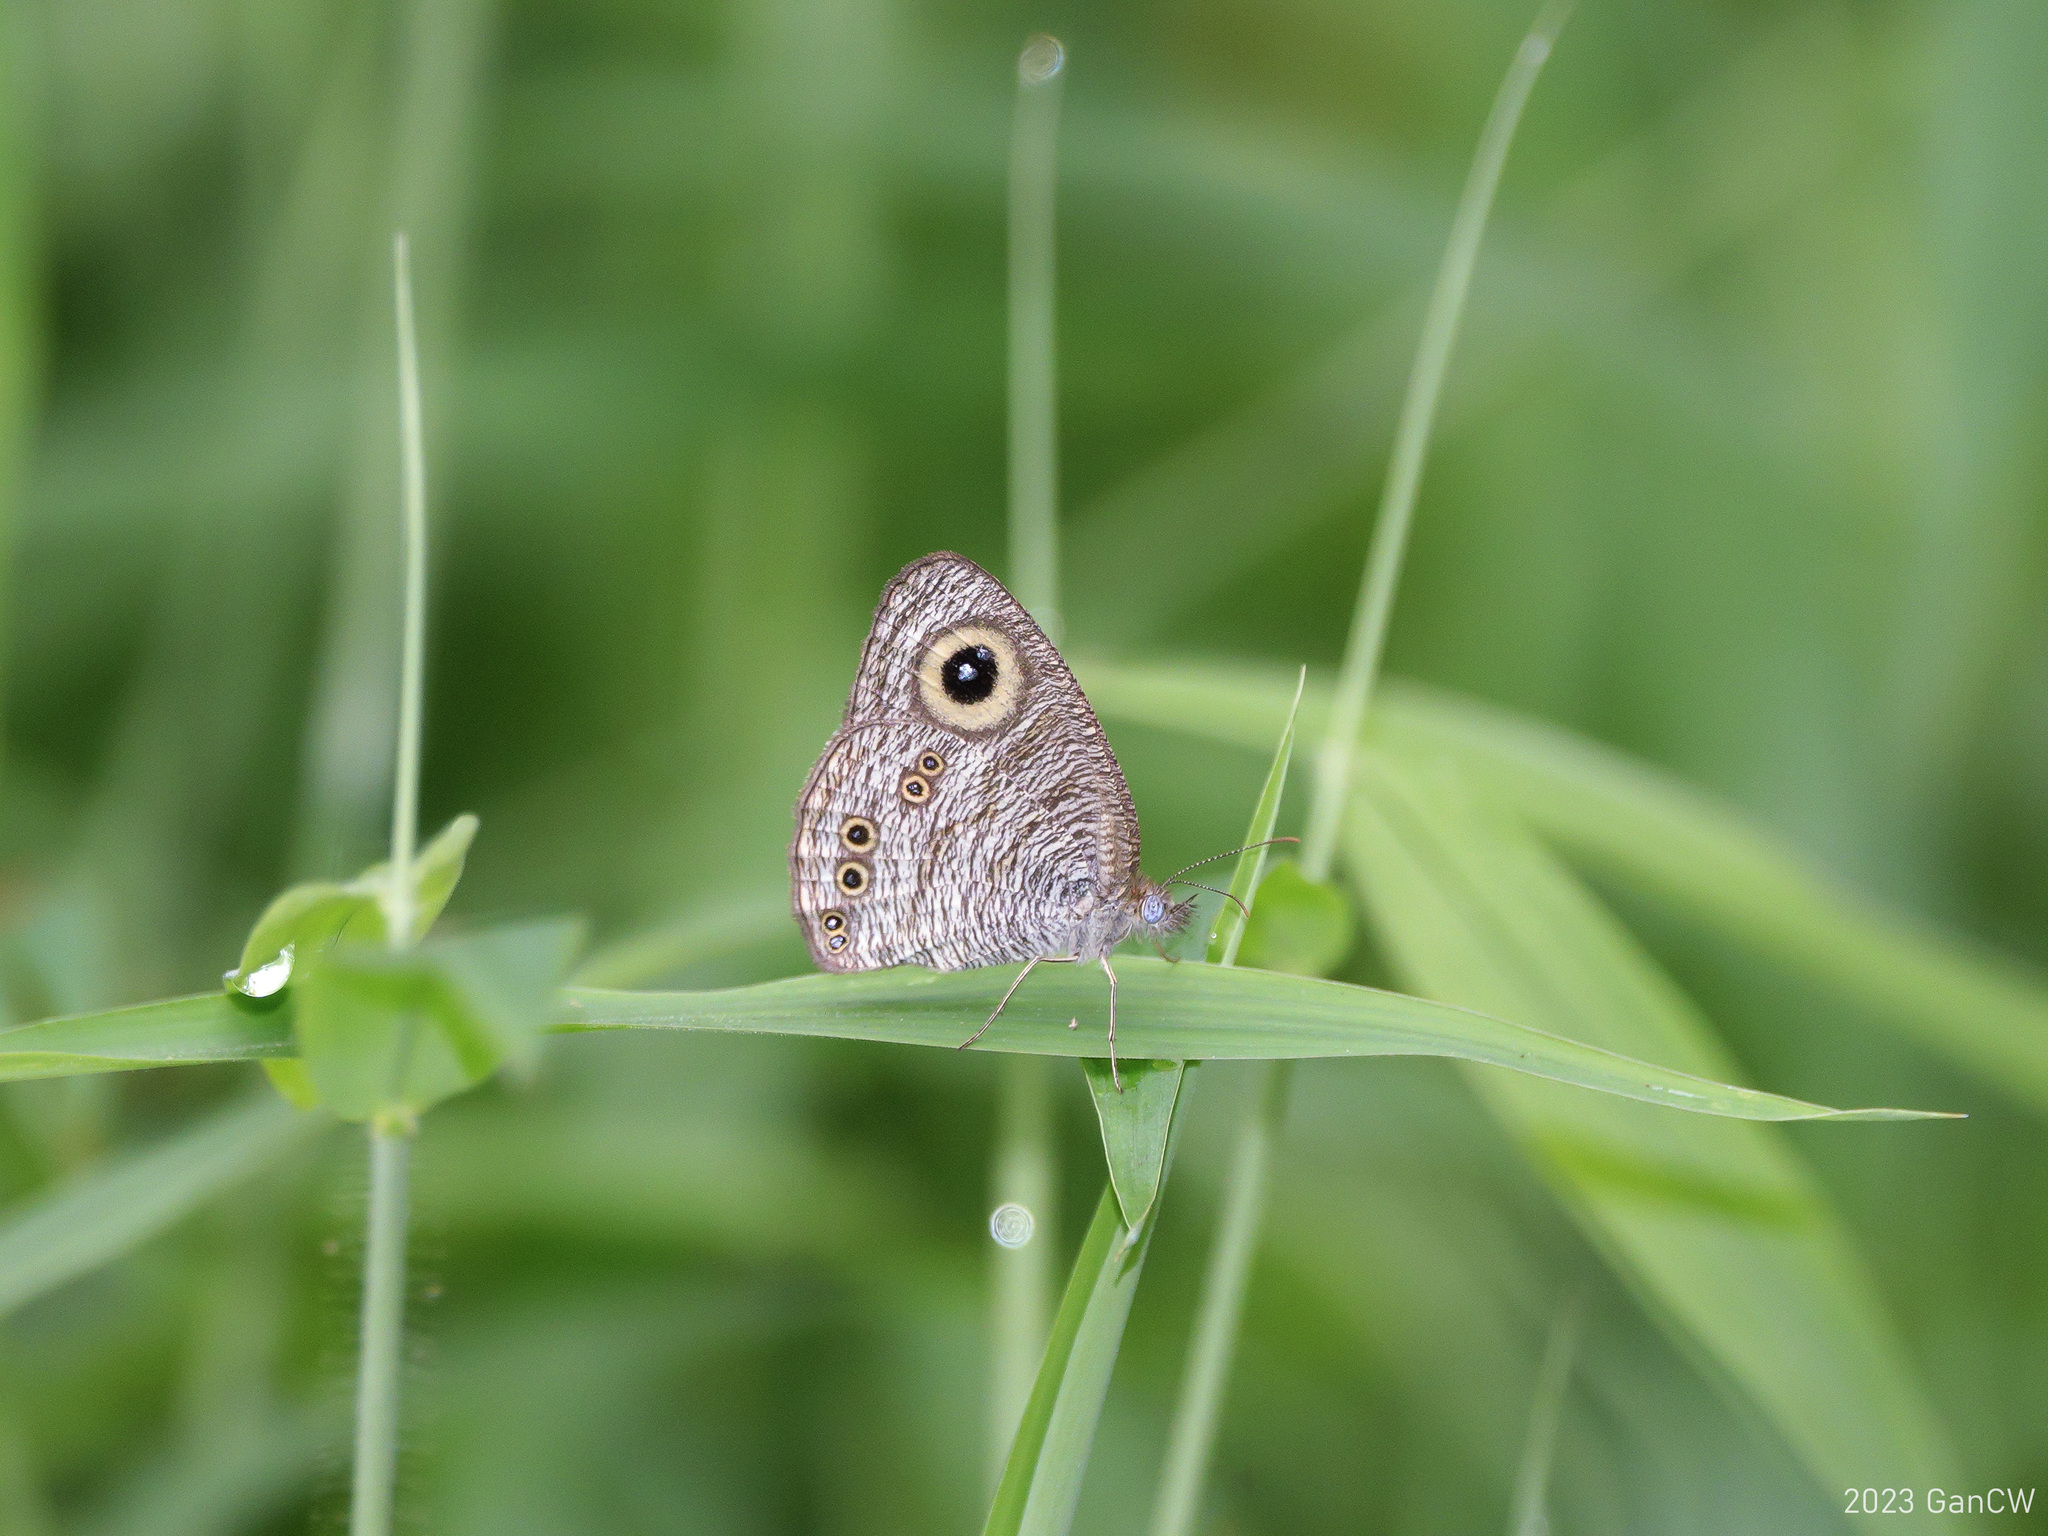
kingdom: Animalia
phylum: Arthropoda
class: Insecta
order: Lepidoptera
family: Nymphalidae
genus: Ypthima
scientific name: Ypthima baldus
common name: Common five-ring
